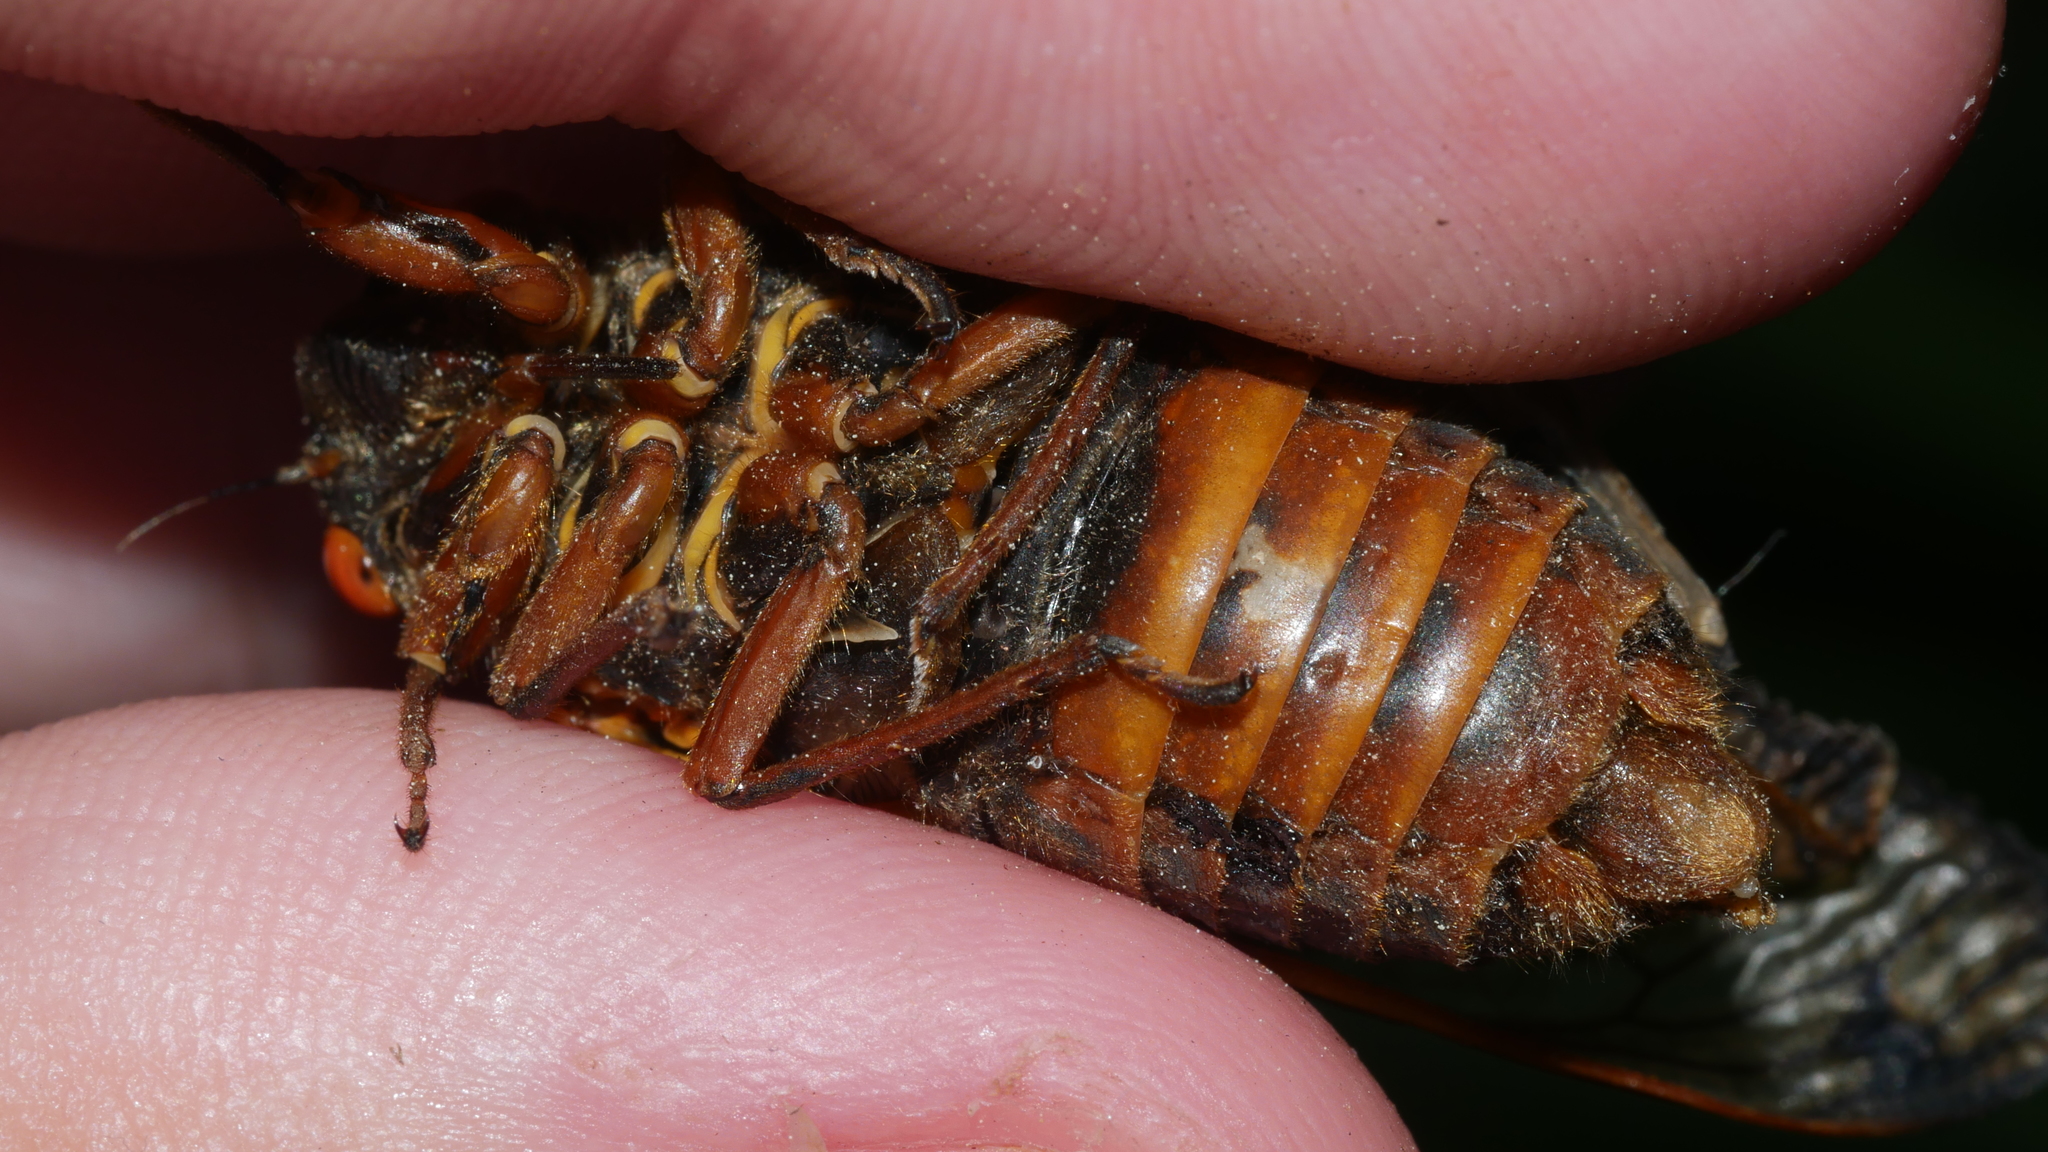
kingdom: Animalia
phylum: Arthropoda
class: Insecta
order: Hemiptera
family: Cicadidae
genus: Magicicada
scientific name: Magicicada septendecim
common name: Periodical cicada
